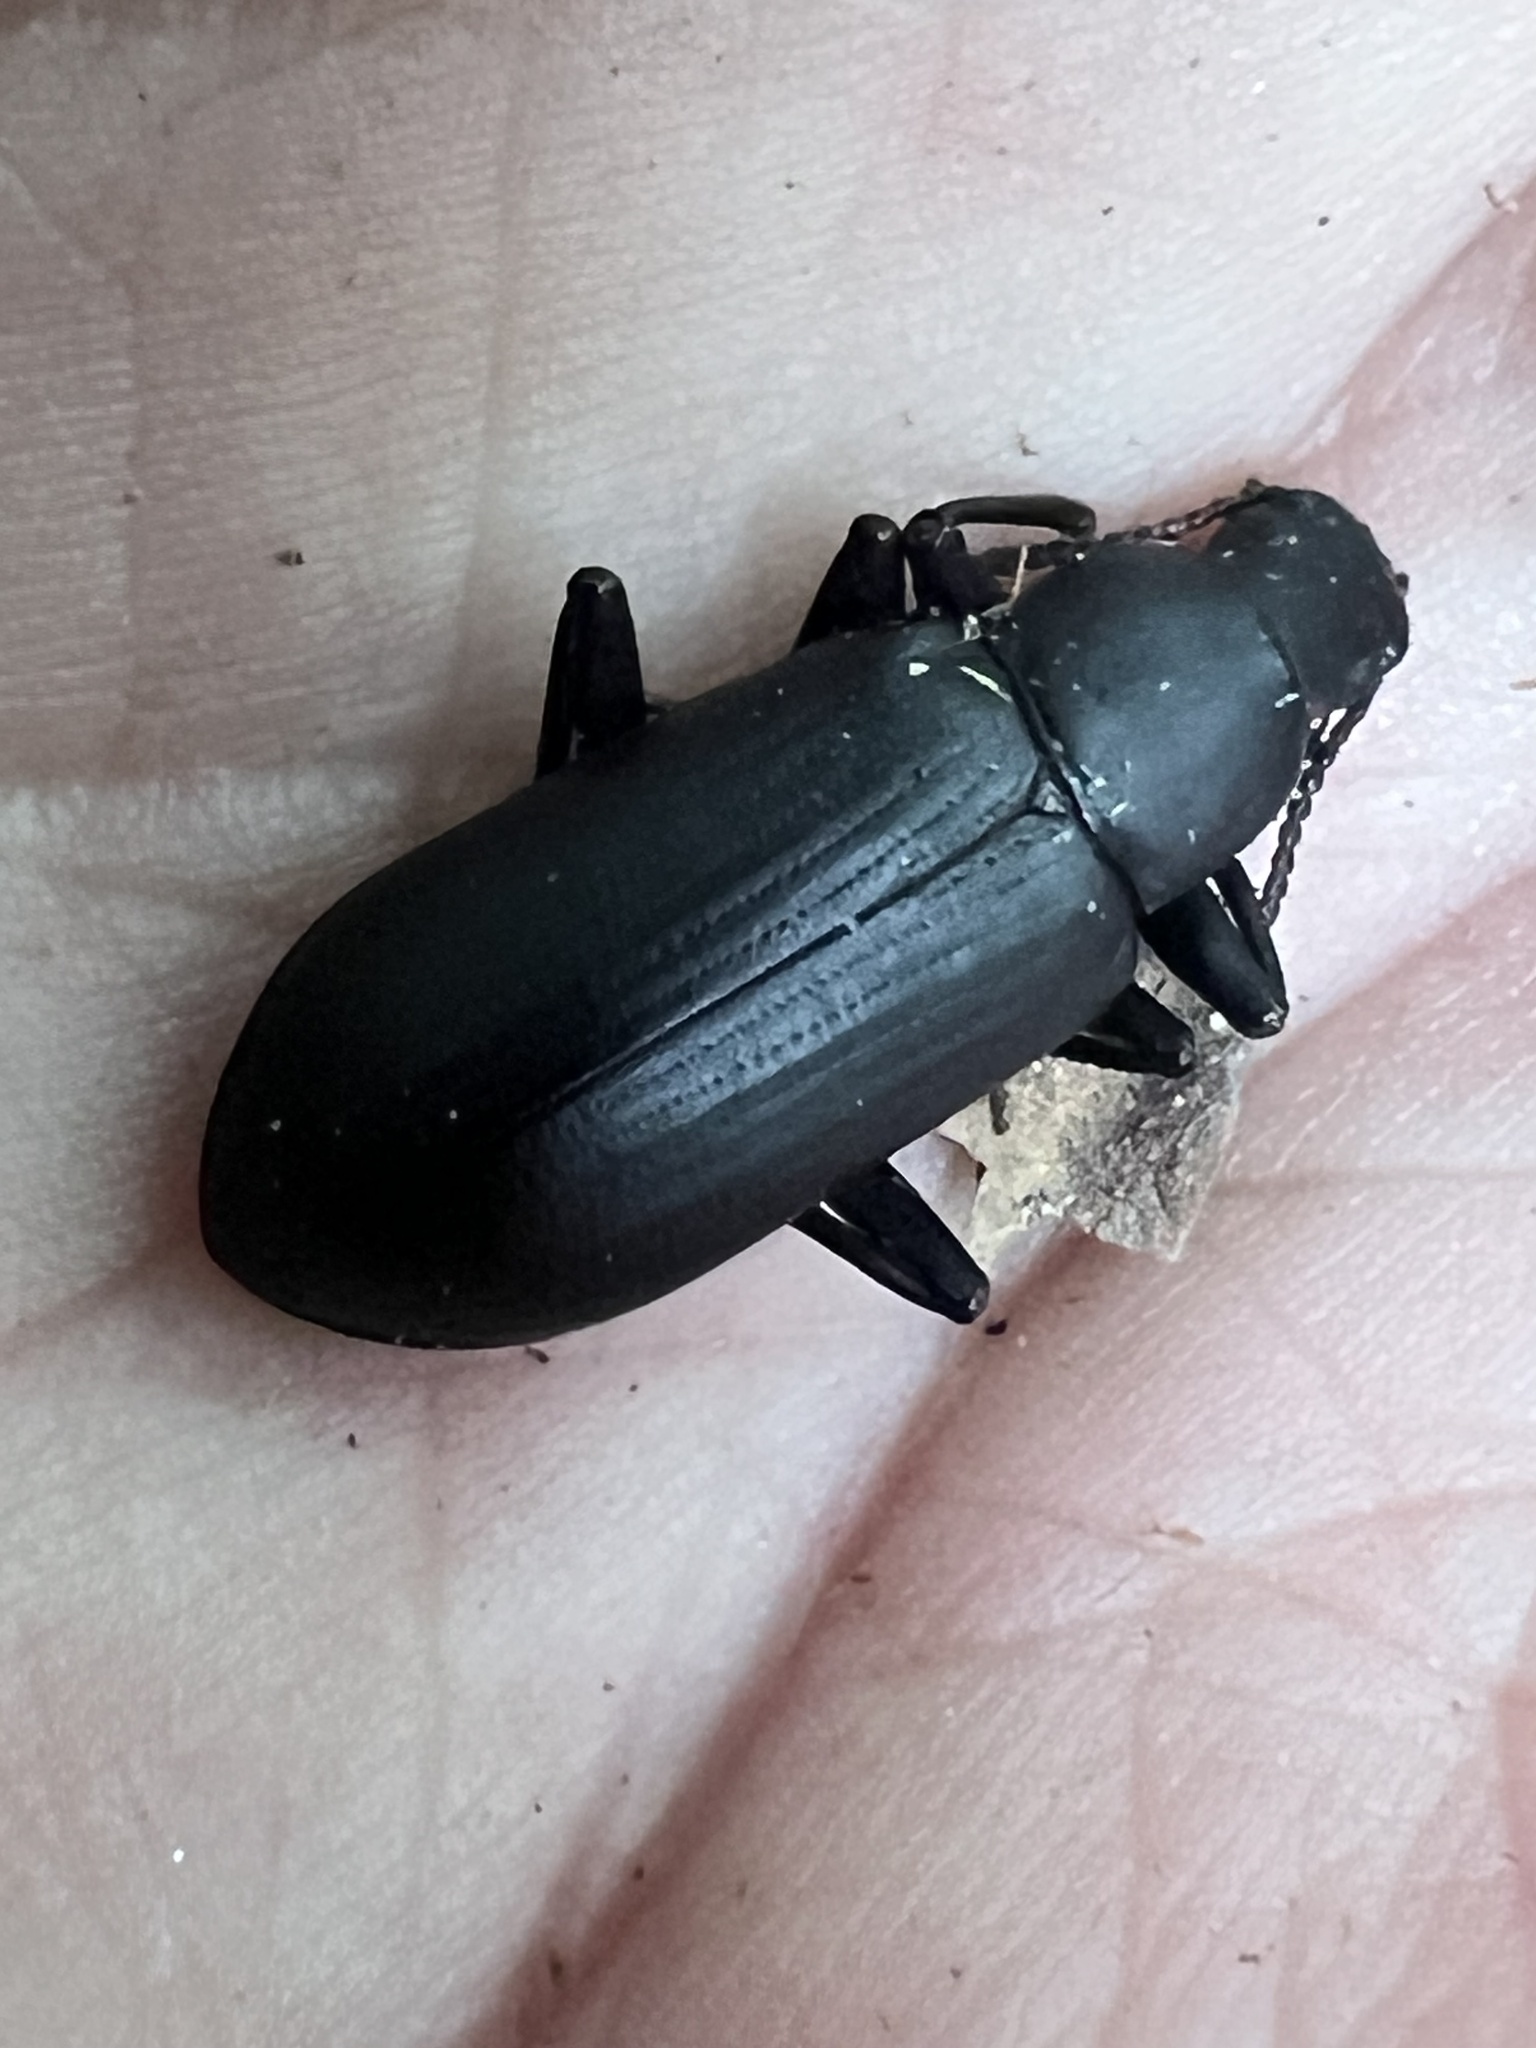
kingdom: Animalia
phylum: Arthropoda
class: Insecta
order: Coleoptera
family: Tenebrionidae
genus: Alobates
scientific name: Alobates pensylvanicus
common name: False mealworm beetle
